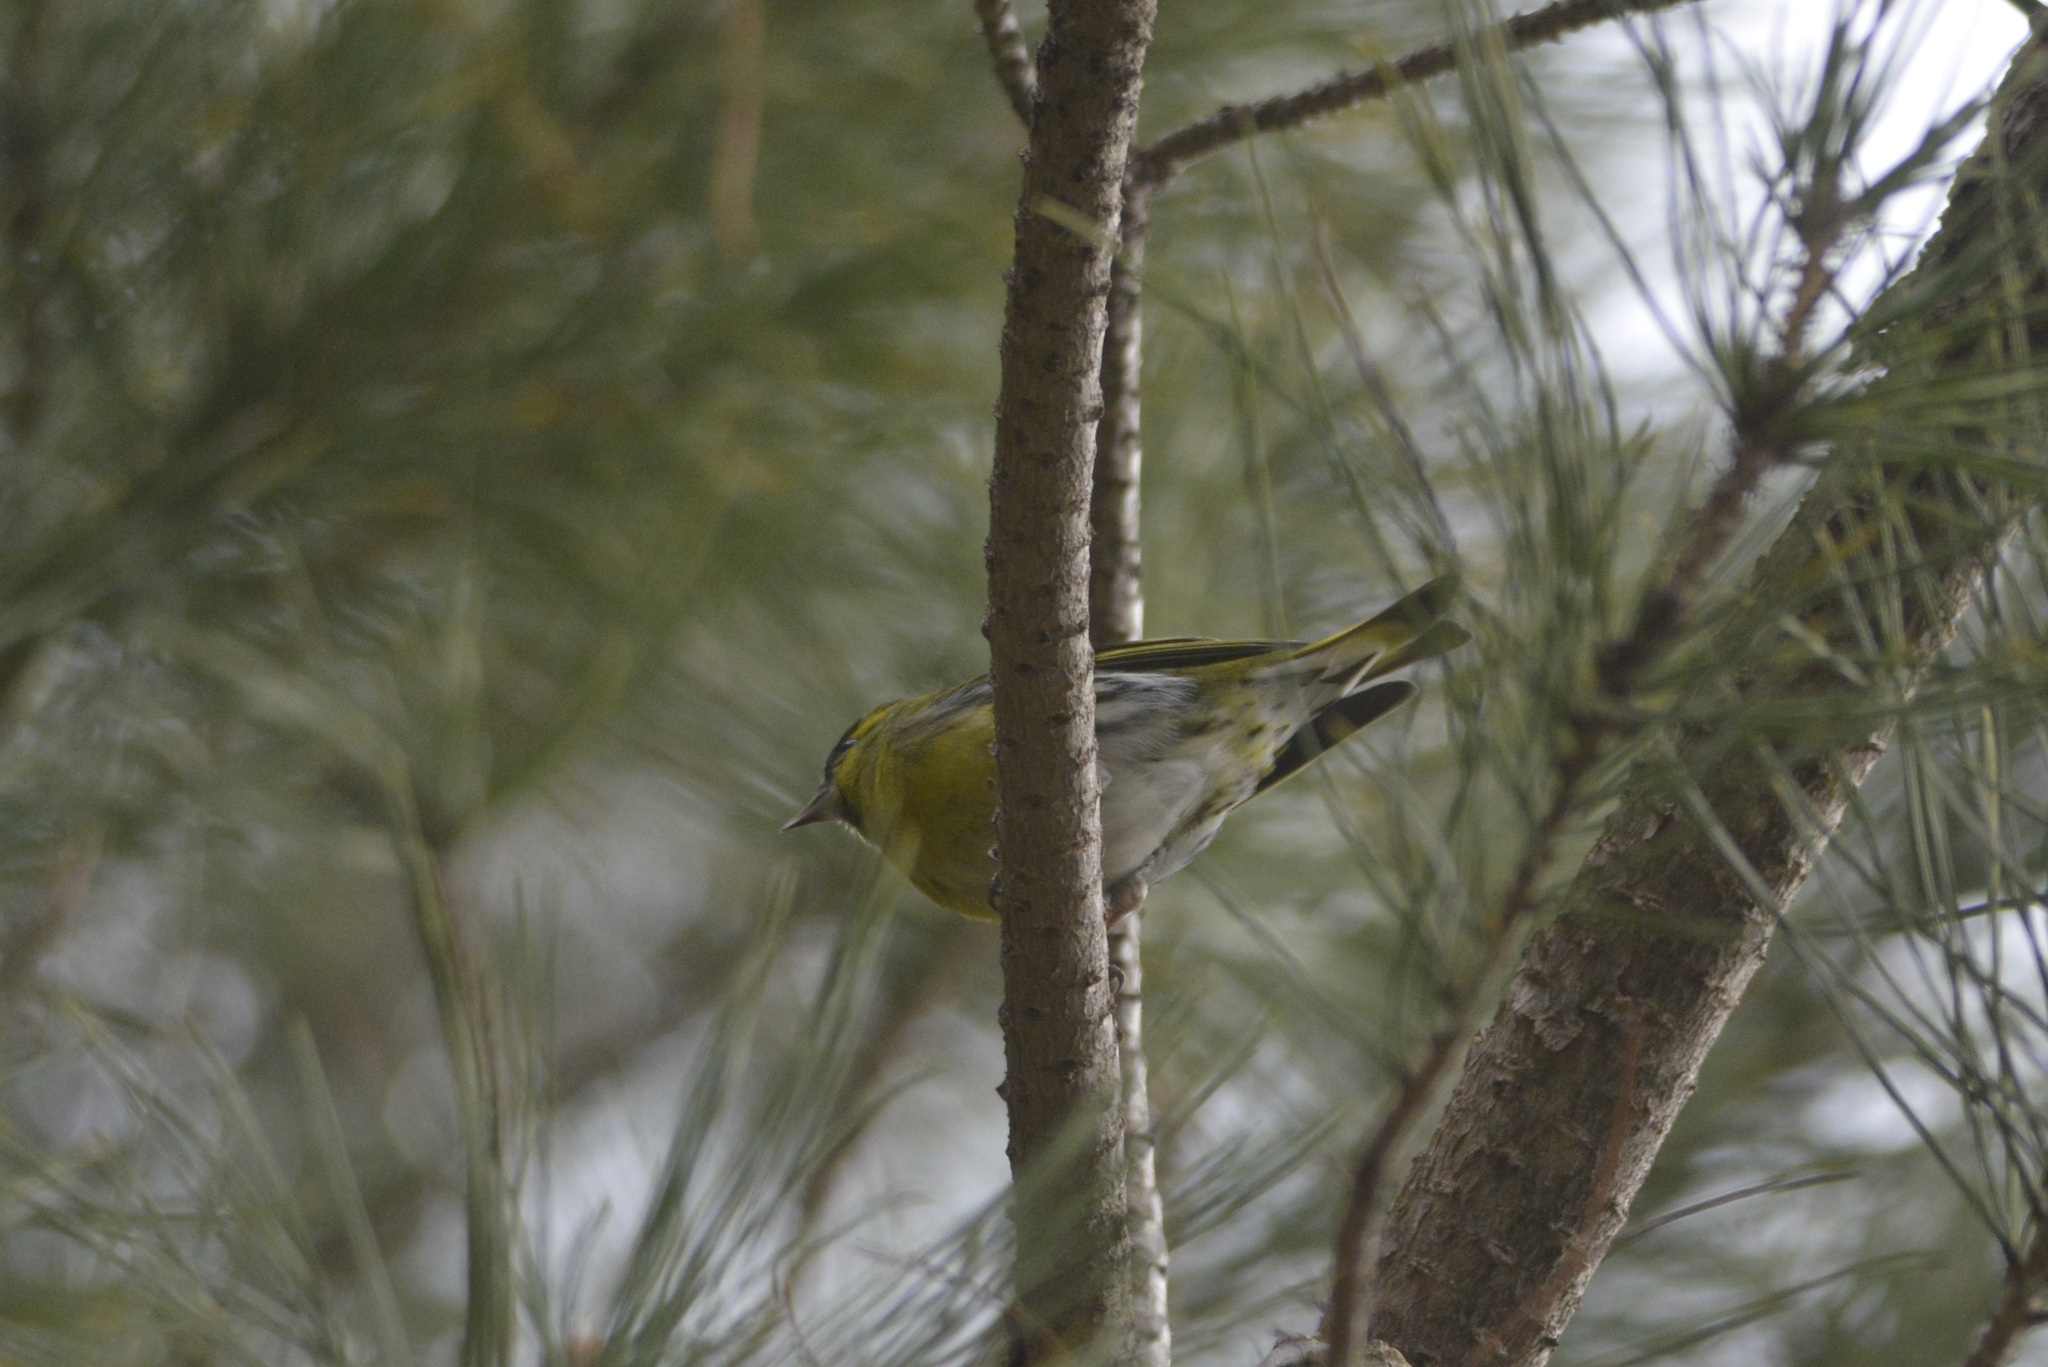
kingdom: Animalia
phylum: Chordata
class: Aves
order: Passeriformes
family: Fringillidae
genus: Spinus
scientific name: Spinus spinus
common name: Eurasian siskin
